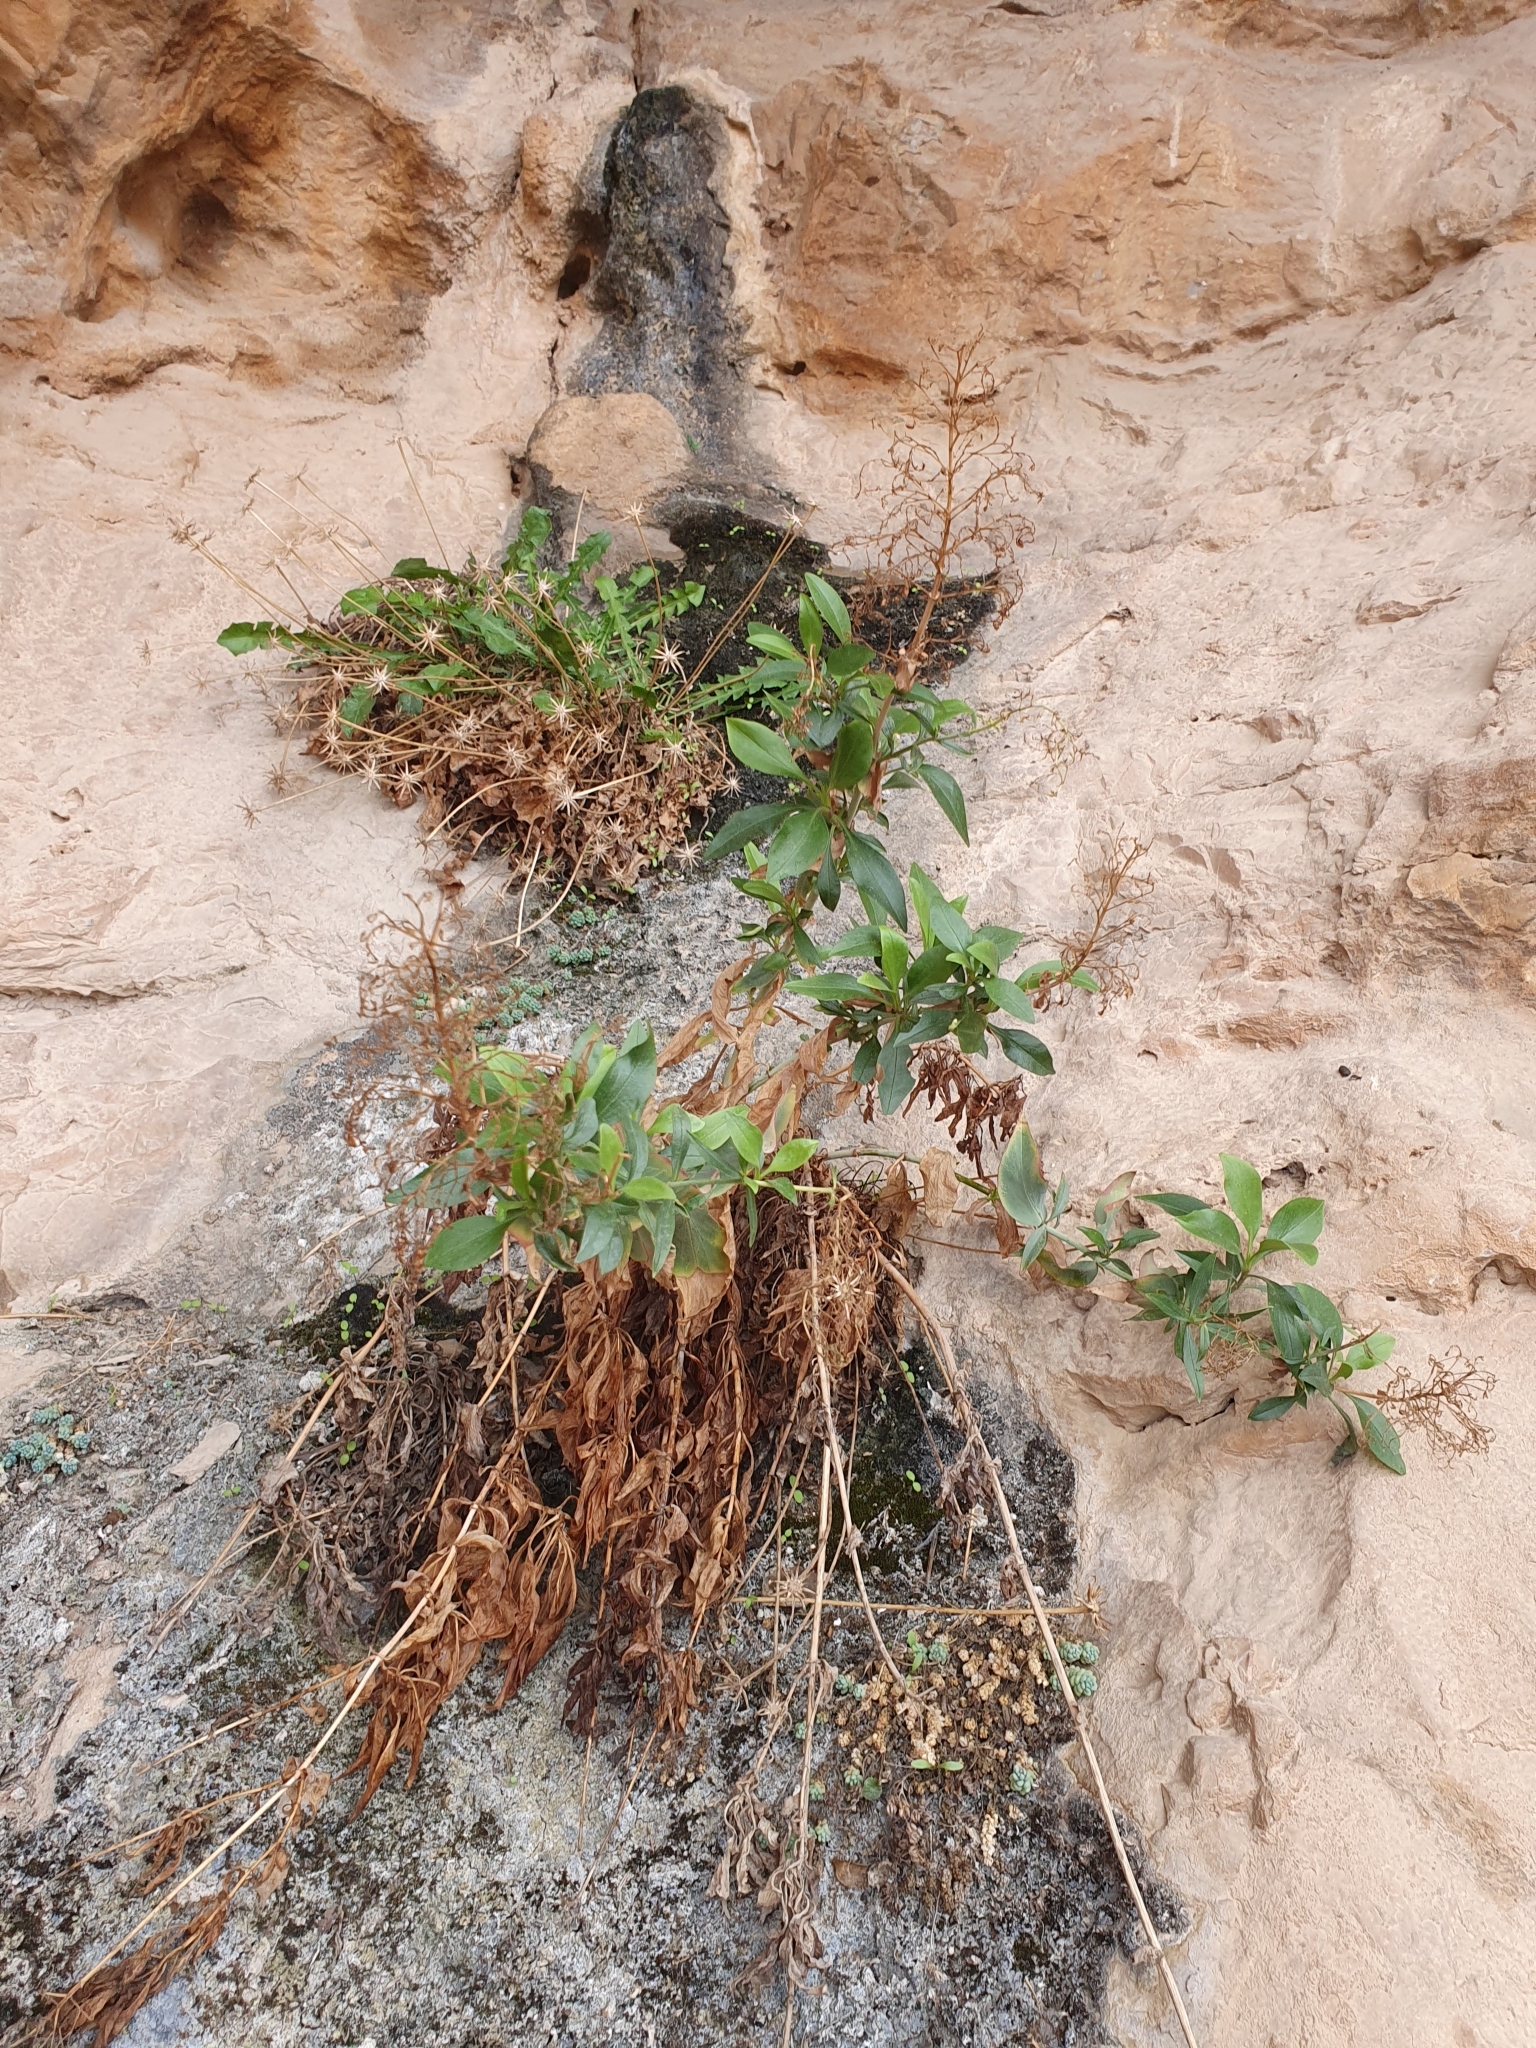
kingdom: Plantae
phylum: Tracheophyta
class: Magnoliopsida
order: Dipsacales
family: Caprifoliaceae
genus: Centranthus
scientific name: Centranthus ruber
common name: Red valerian
